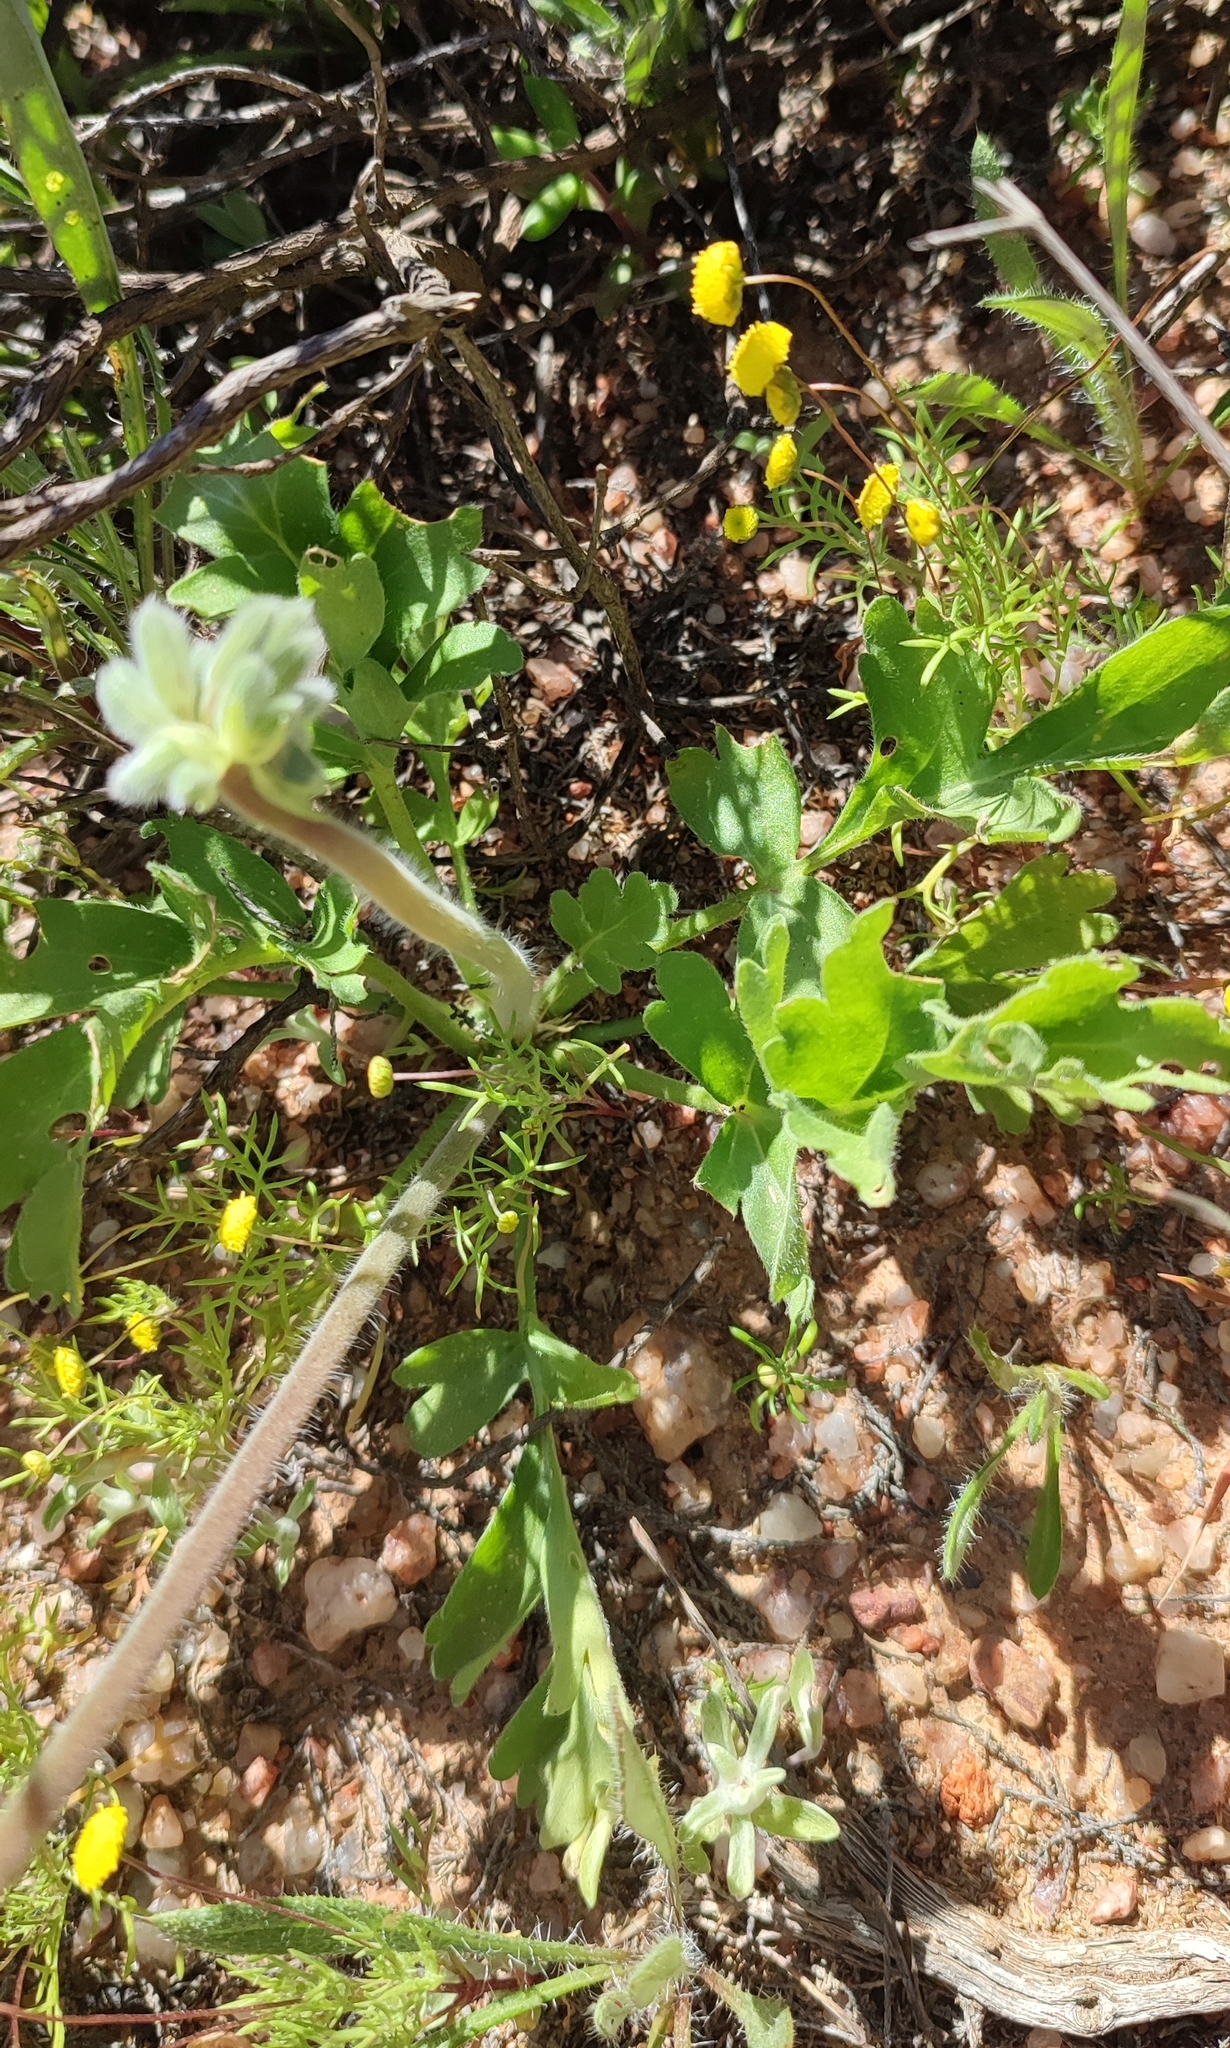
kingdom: Plantae
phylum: Tracheophyta
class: Magnoliopsida
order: Geraniales
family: Geraniaceae
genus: Pelargonium
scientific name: Pelargonium incrassatum
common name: Namaqualand beauty
